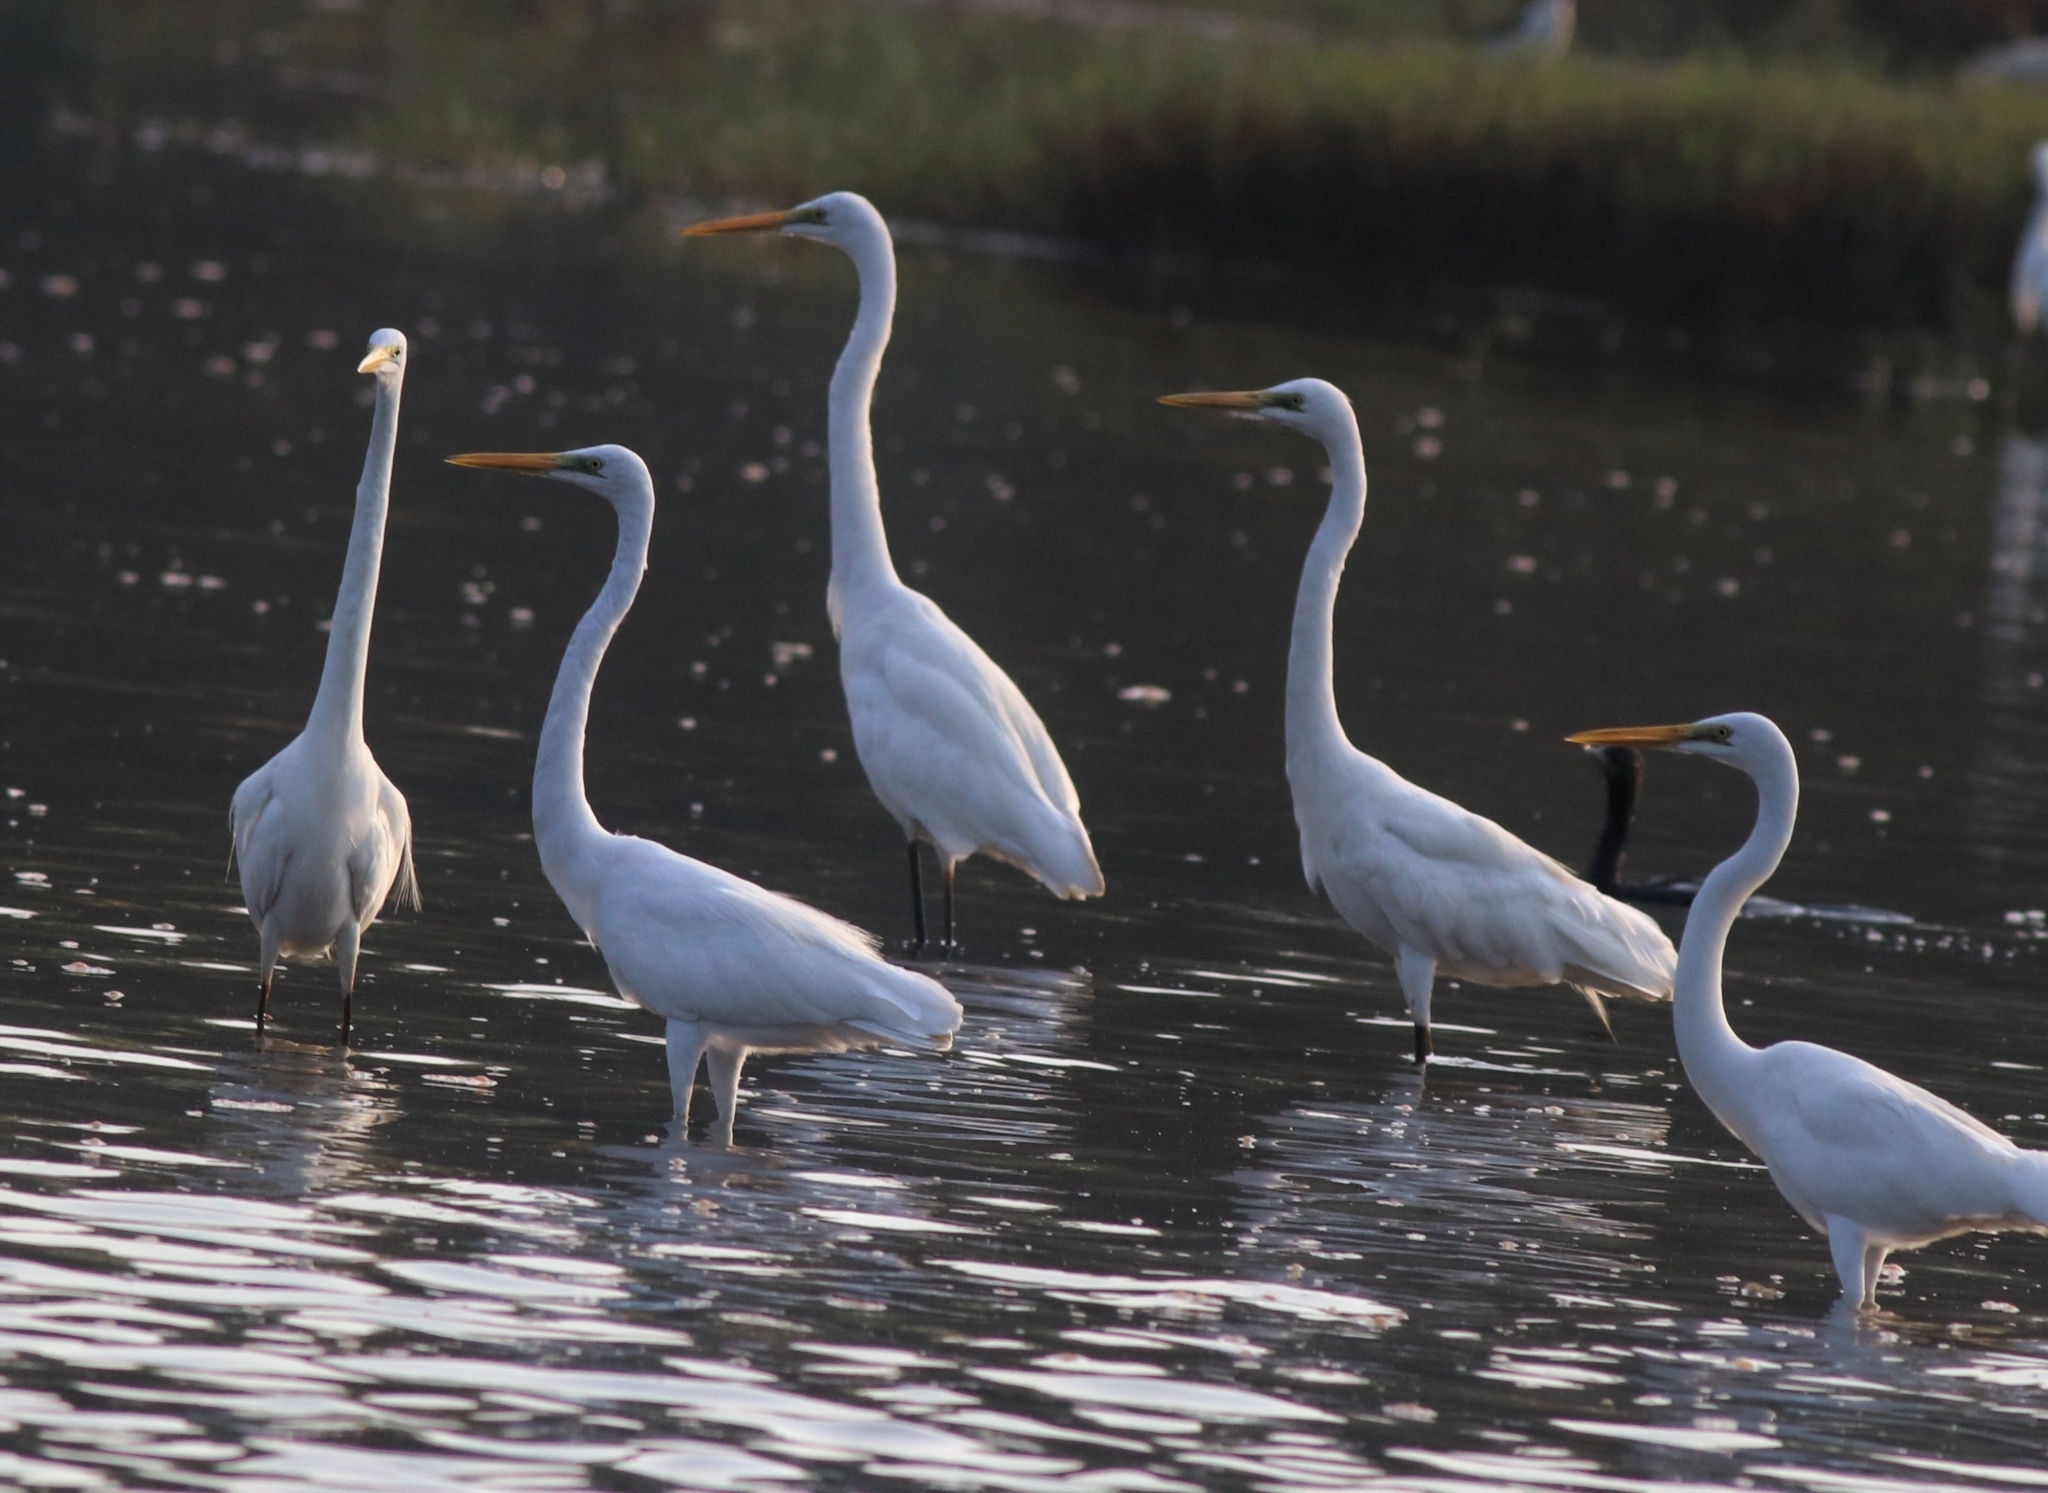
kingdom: Animalia
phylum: Chordata
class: Aves
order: Pelecaniformes
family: Ardeidae
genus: Ardea
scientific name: Ardea alba
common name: Great egret
